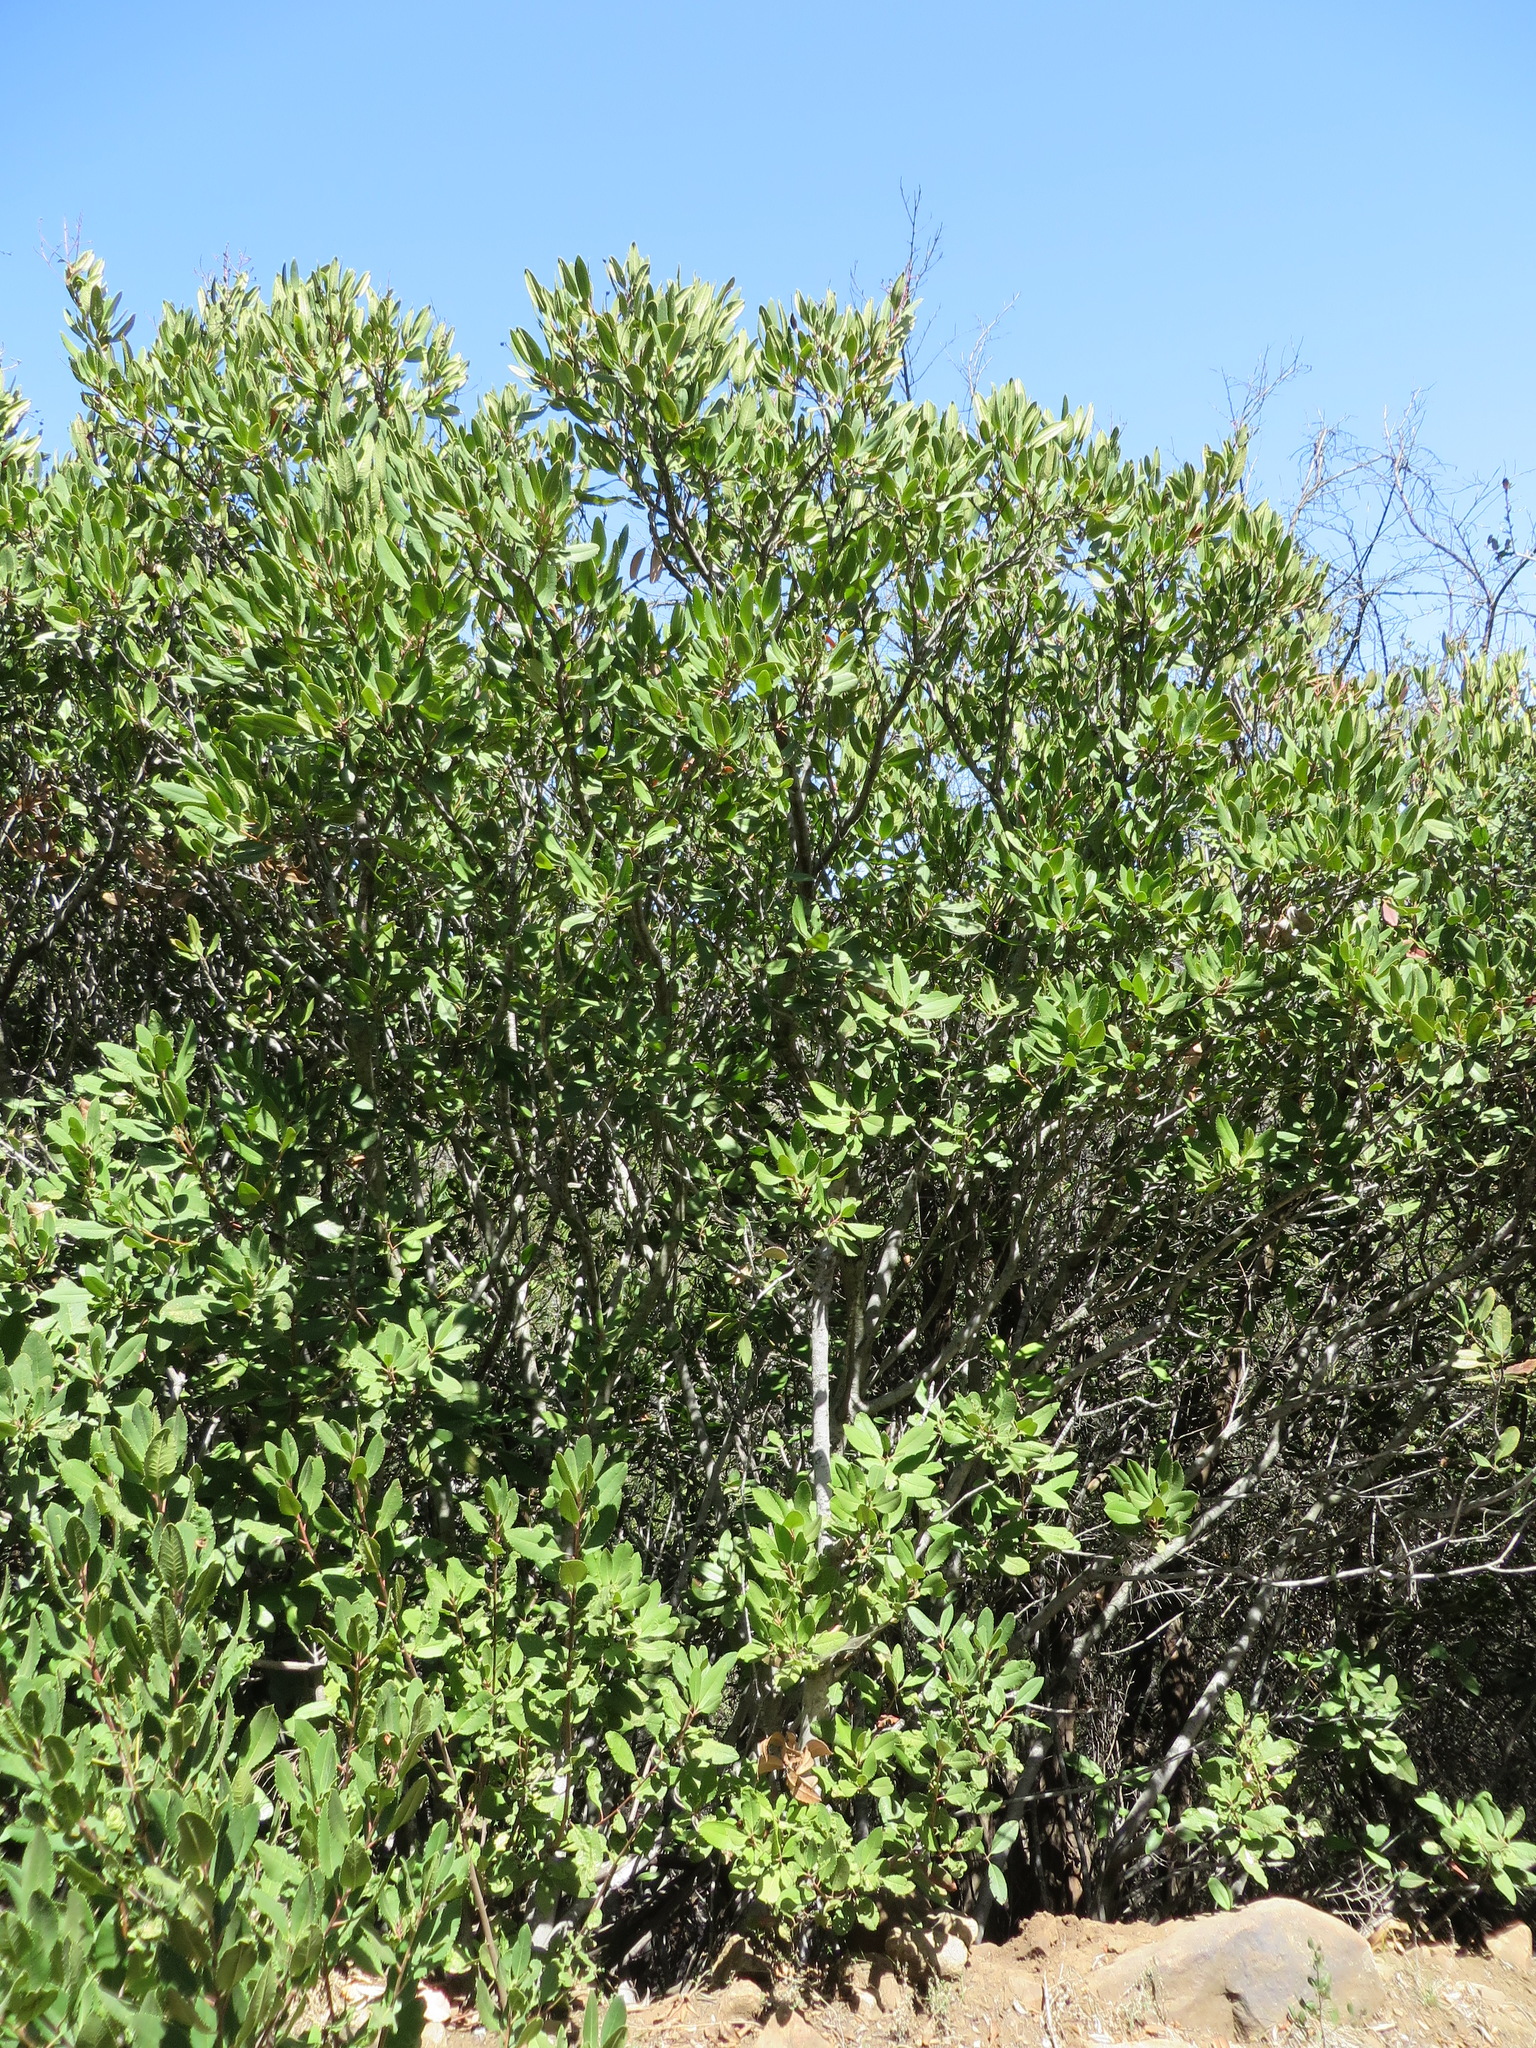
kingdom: Plantae
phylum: Tracheophyta
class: Magnoliopsida
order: Rosales
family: Rosaceae
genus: Heteromeles
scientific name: Heteromeles arbutifolia
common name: California-holly
